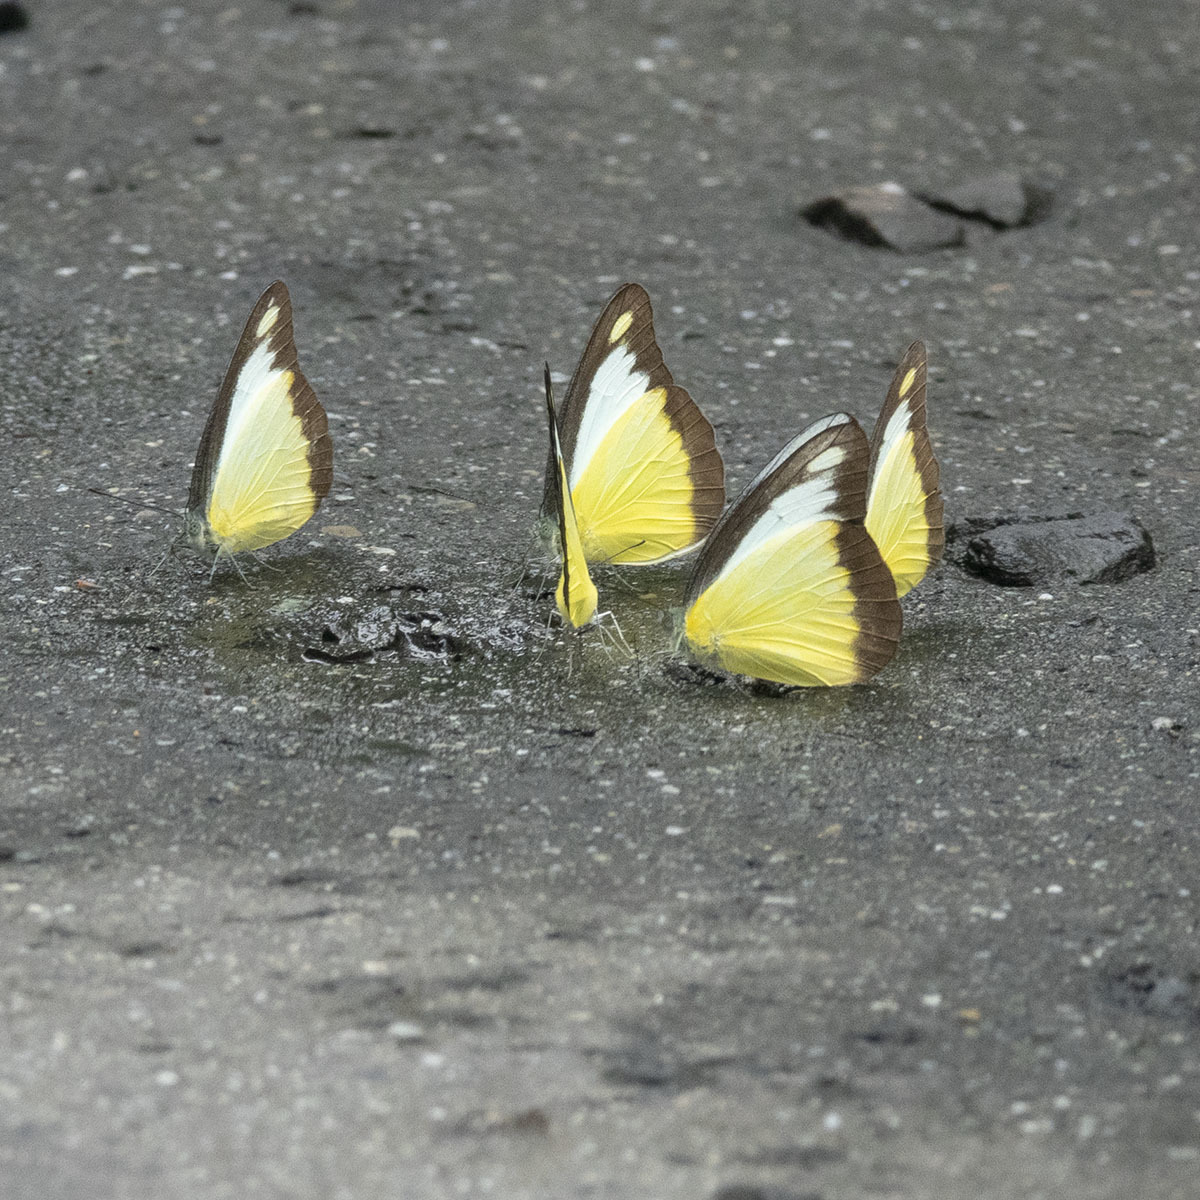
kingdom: Animalia
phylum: Arthropoda
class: Insecta
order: Lepidoptera
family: Pieridae
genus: Appias
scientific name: Appias lyncida
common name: Chocolate albatross
